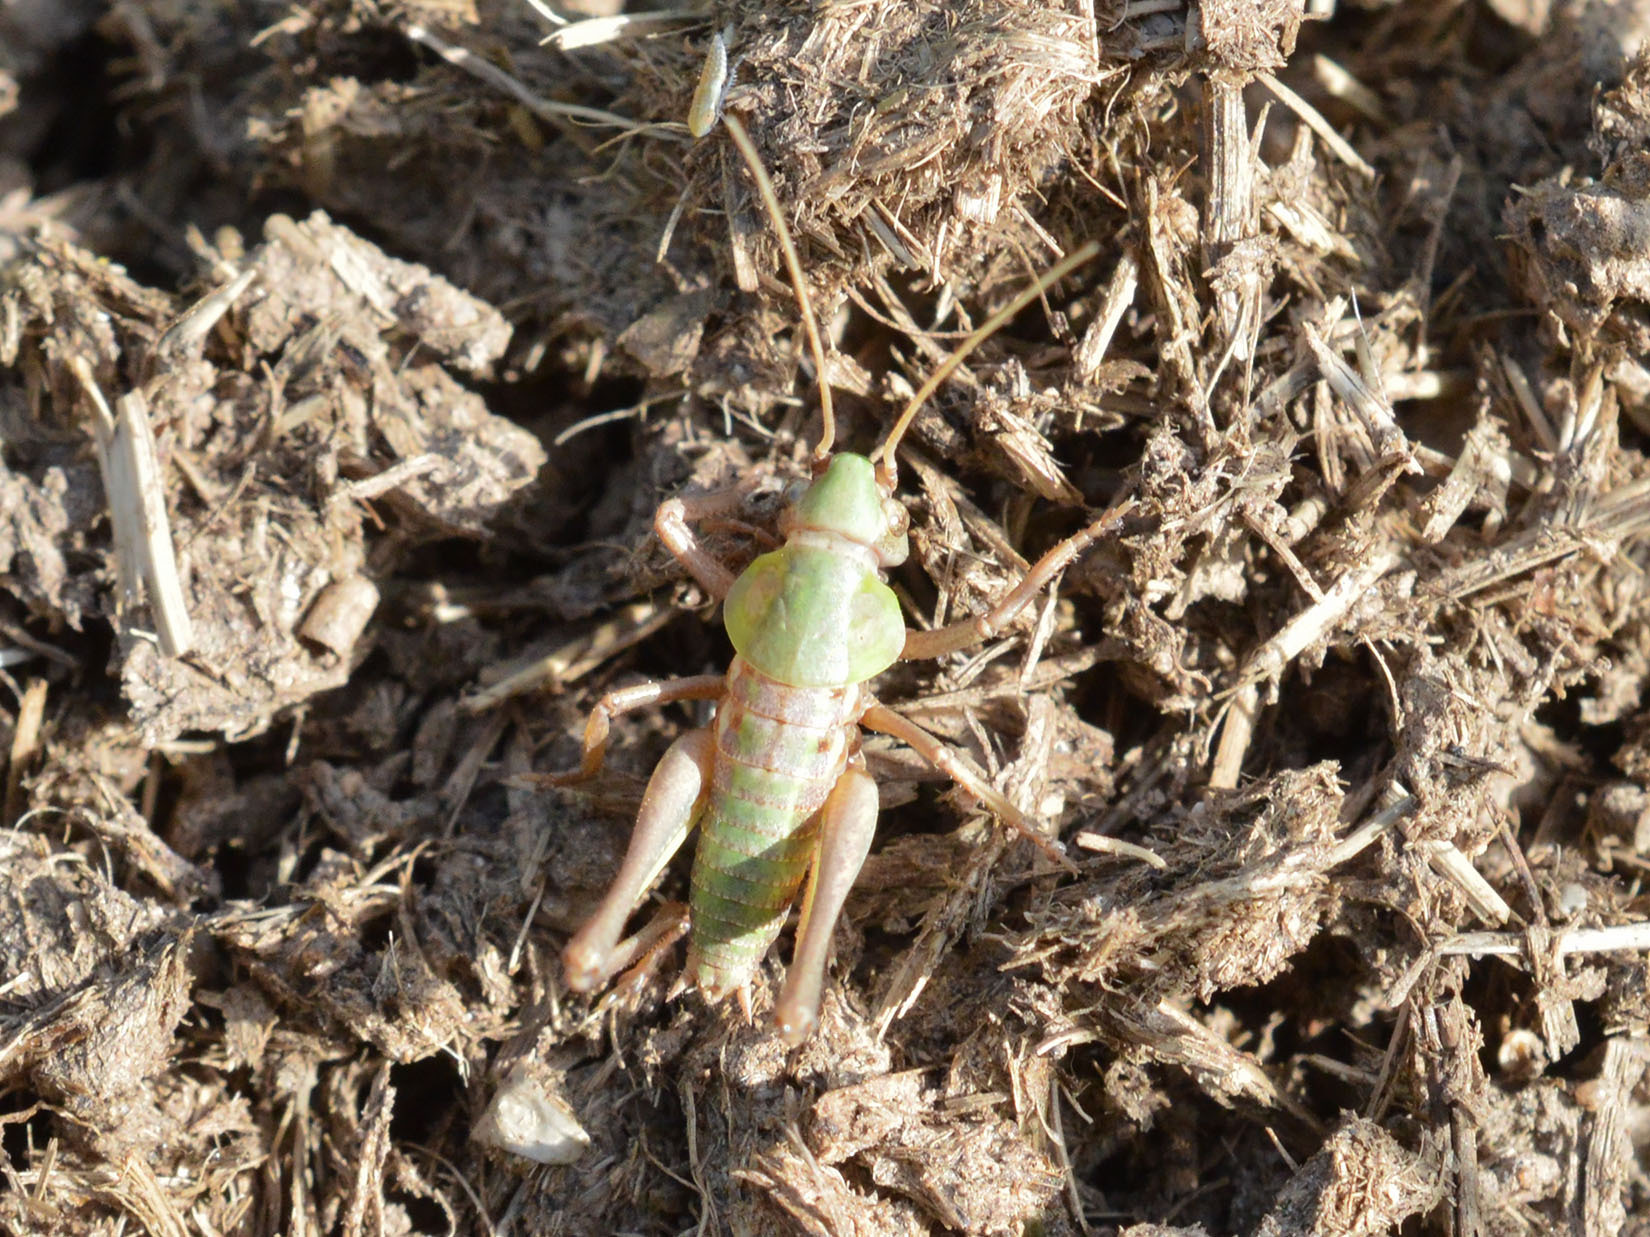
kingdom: Animalia
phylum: Arthropoda
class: Insecta
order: Orthoptera
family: Tettigoniidae
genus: Decticus
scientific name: Decticus verrucivorus
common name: Wart-biter
